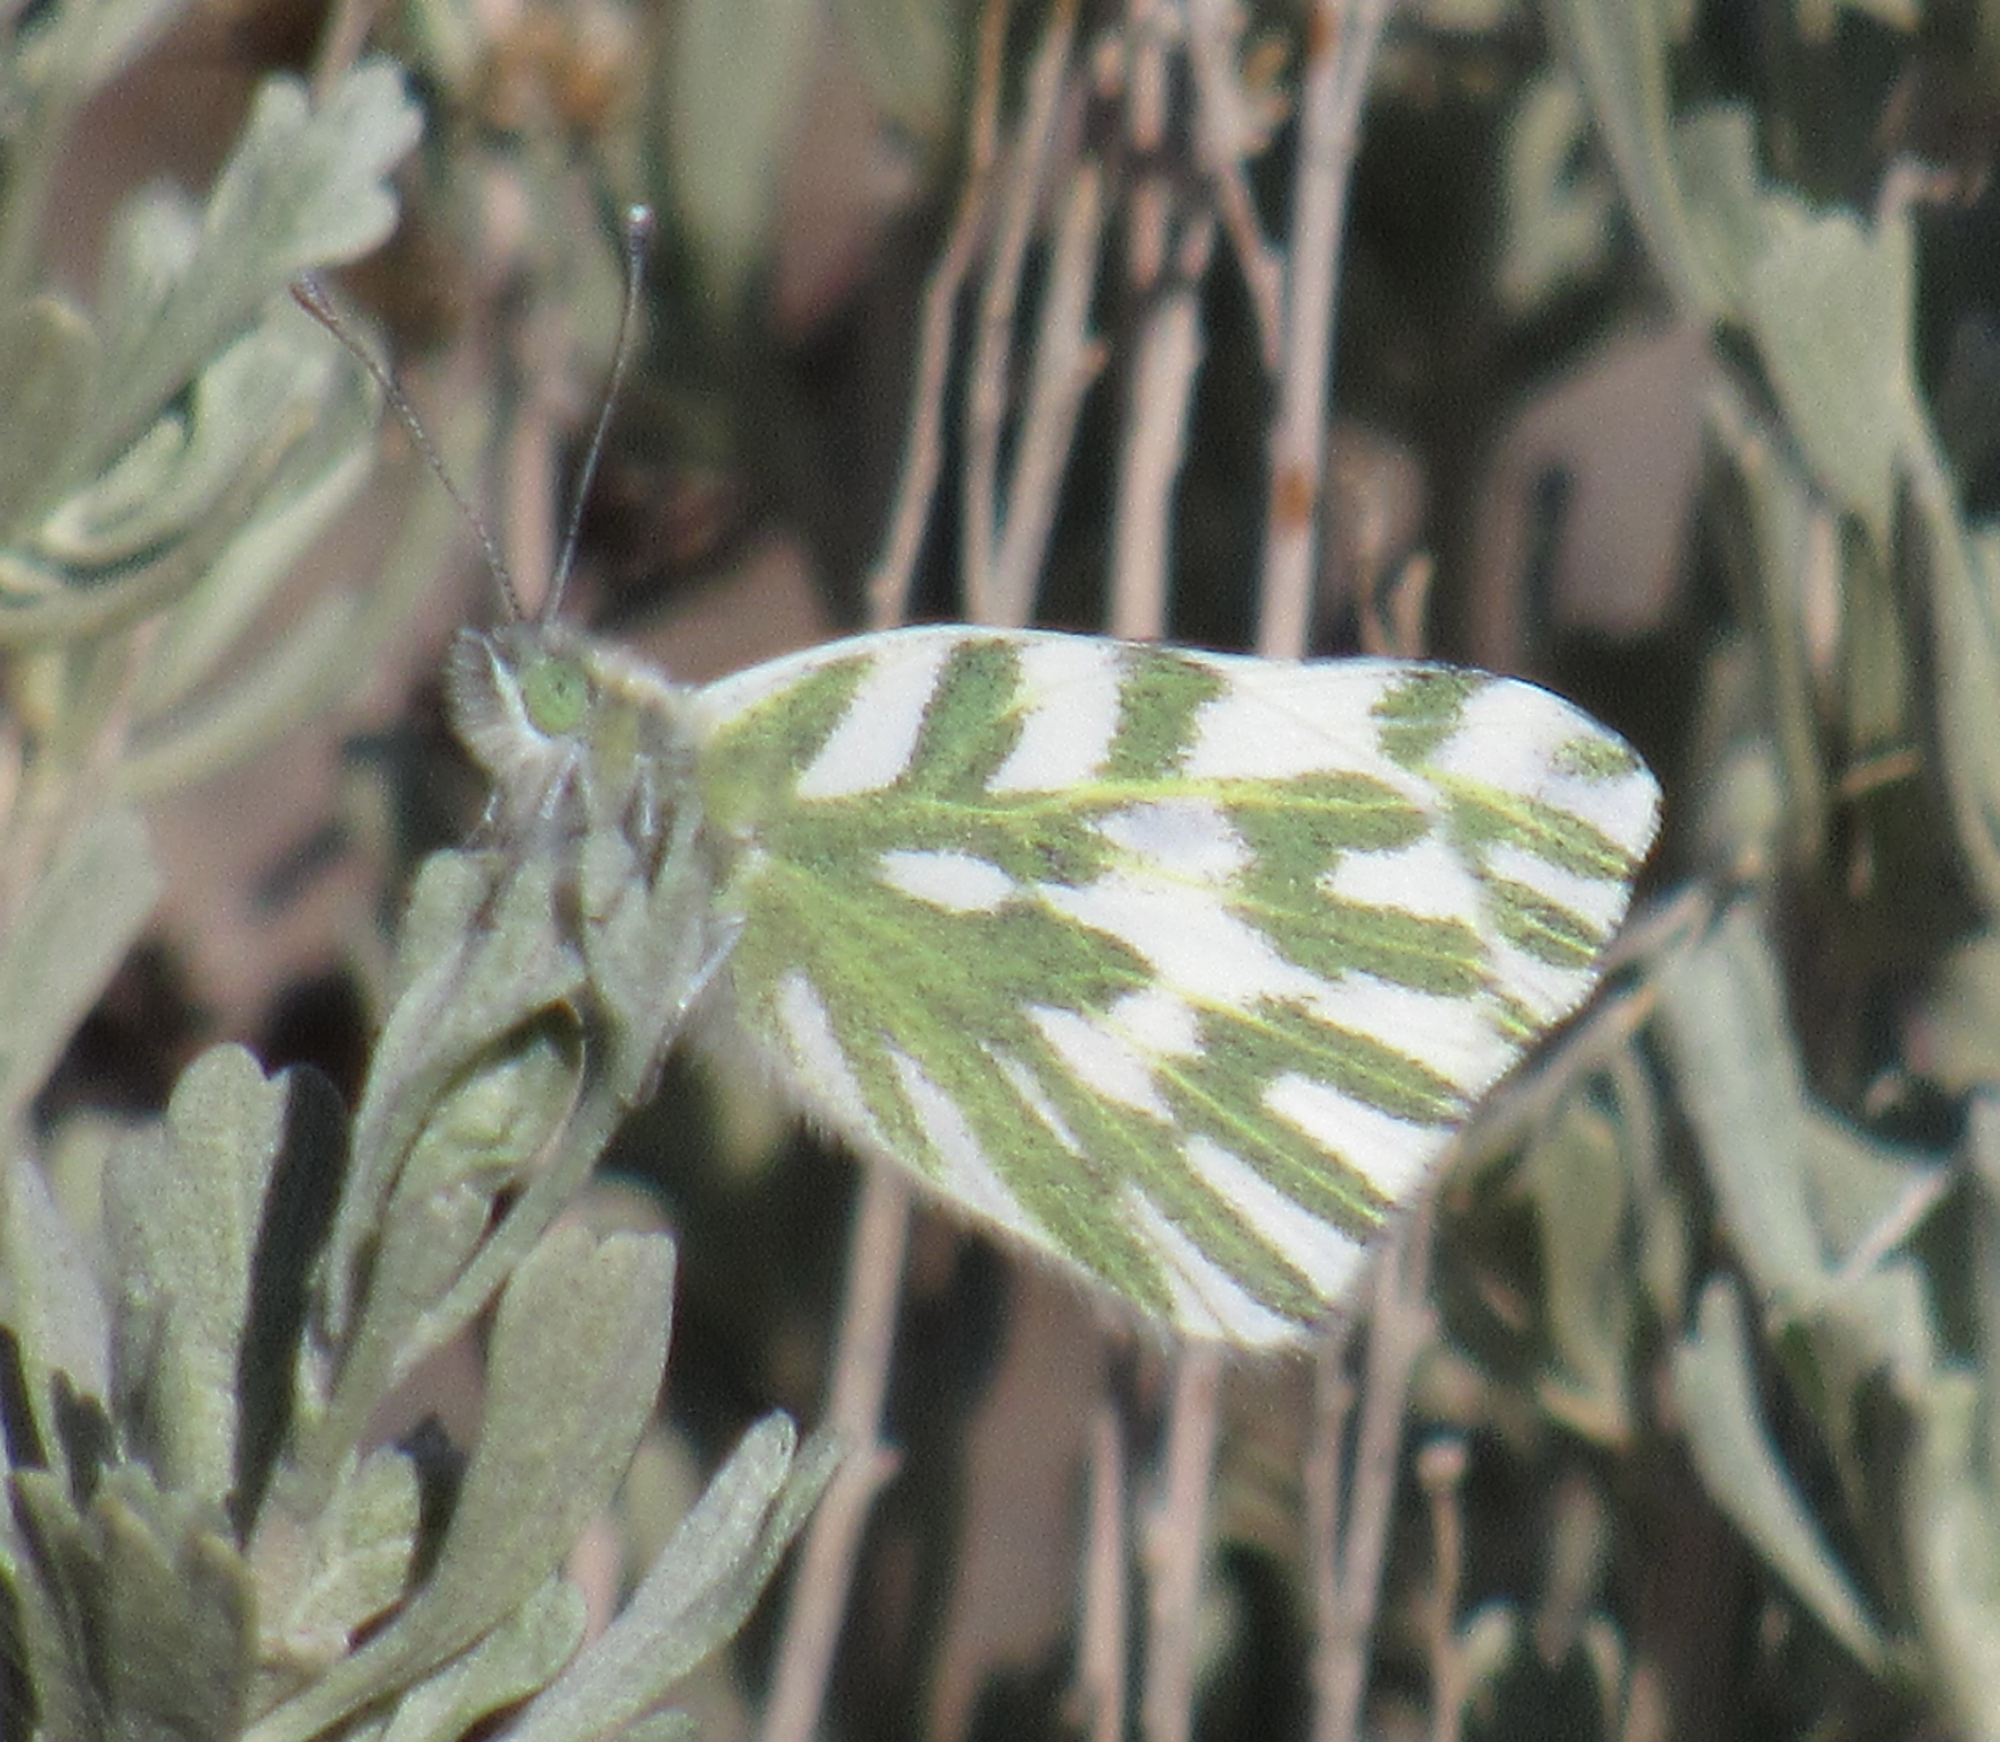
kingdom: Animalia
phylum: Arthropoda
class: Insecta
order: Lepidoptera
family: Pieridae
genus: Pontia
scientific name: Pontia beckerii
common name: Becker's white
